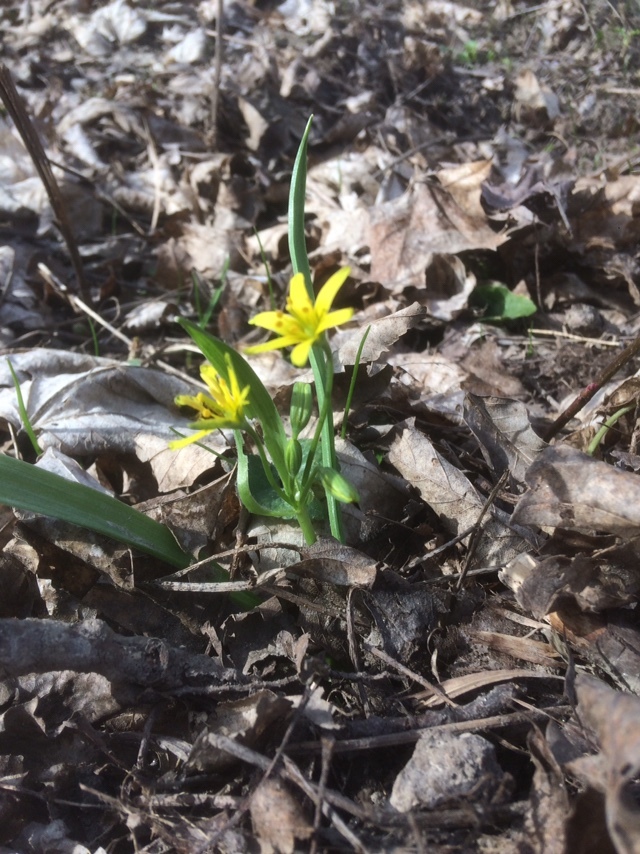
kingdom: Plantae
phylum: Tracheophyta
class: Liliopsida
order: Liliales
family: Liliaceae
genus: Gagea
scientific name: Gagea lutea
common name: Yellow star-of-bethlehem
